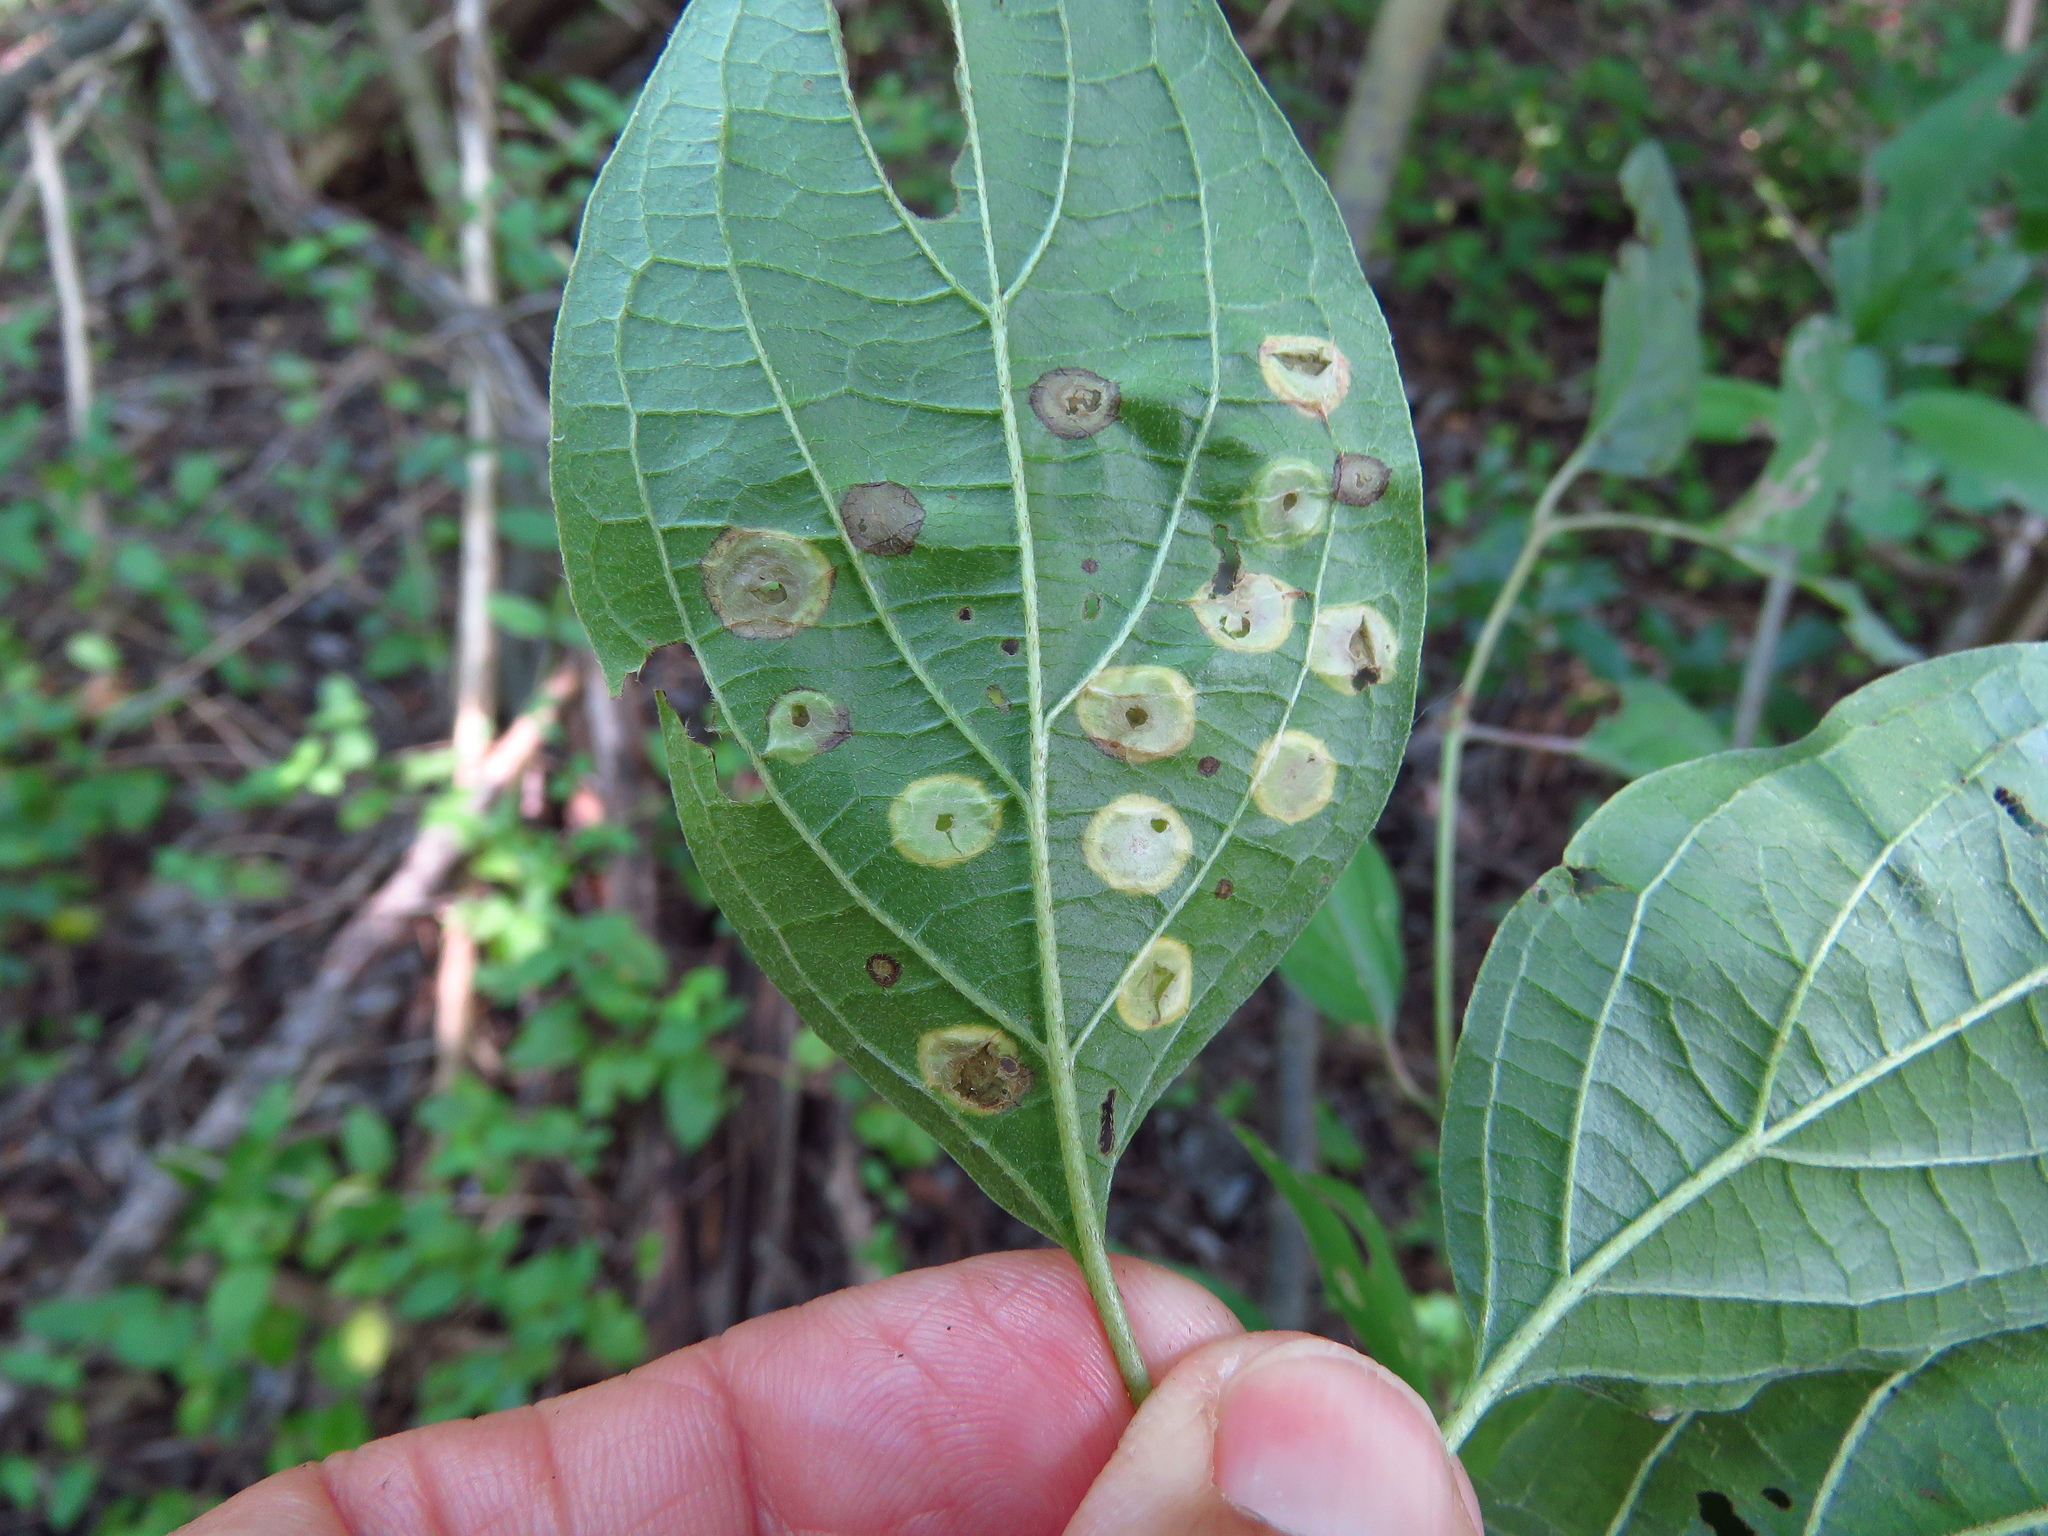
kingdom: Animalia
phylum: Arthropoda
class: Insecta
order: Diptera
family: Cecidomyiidae
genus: Parallelodiplosis
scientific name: Parallelodiplosis subtruncata
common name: Dogwood eyespot gall midge
